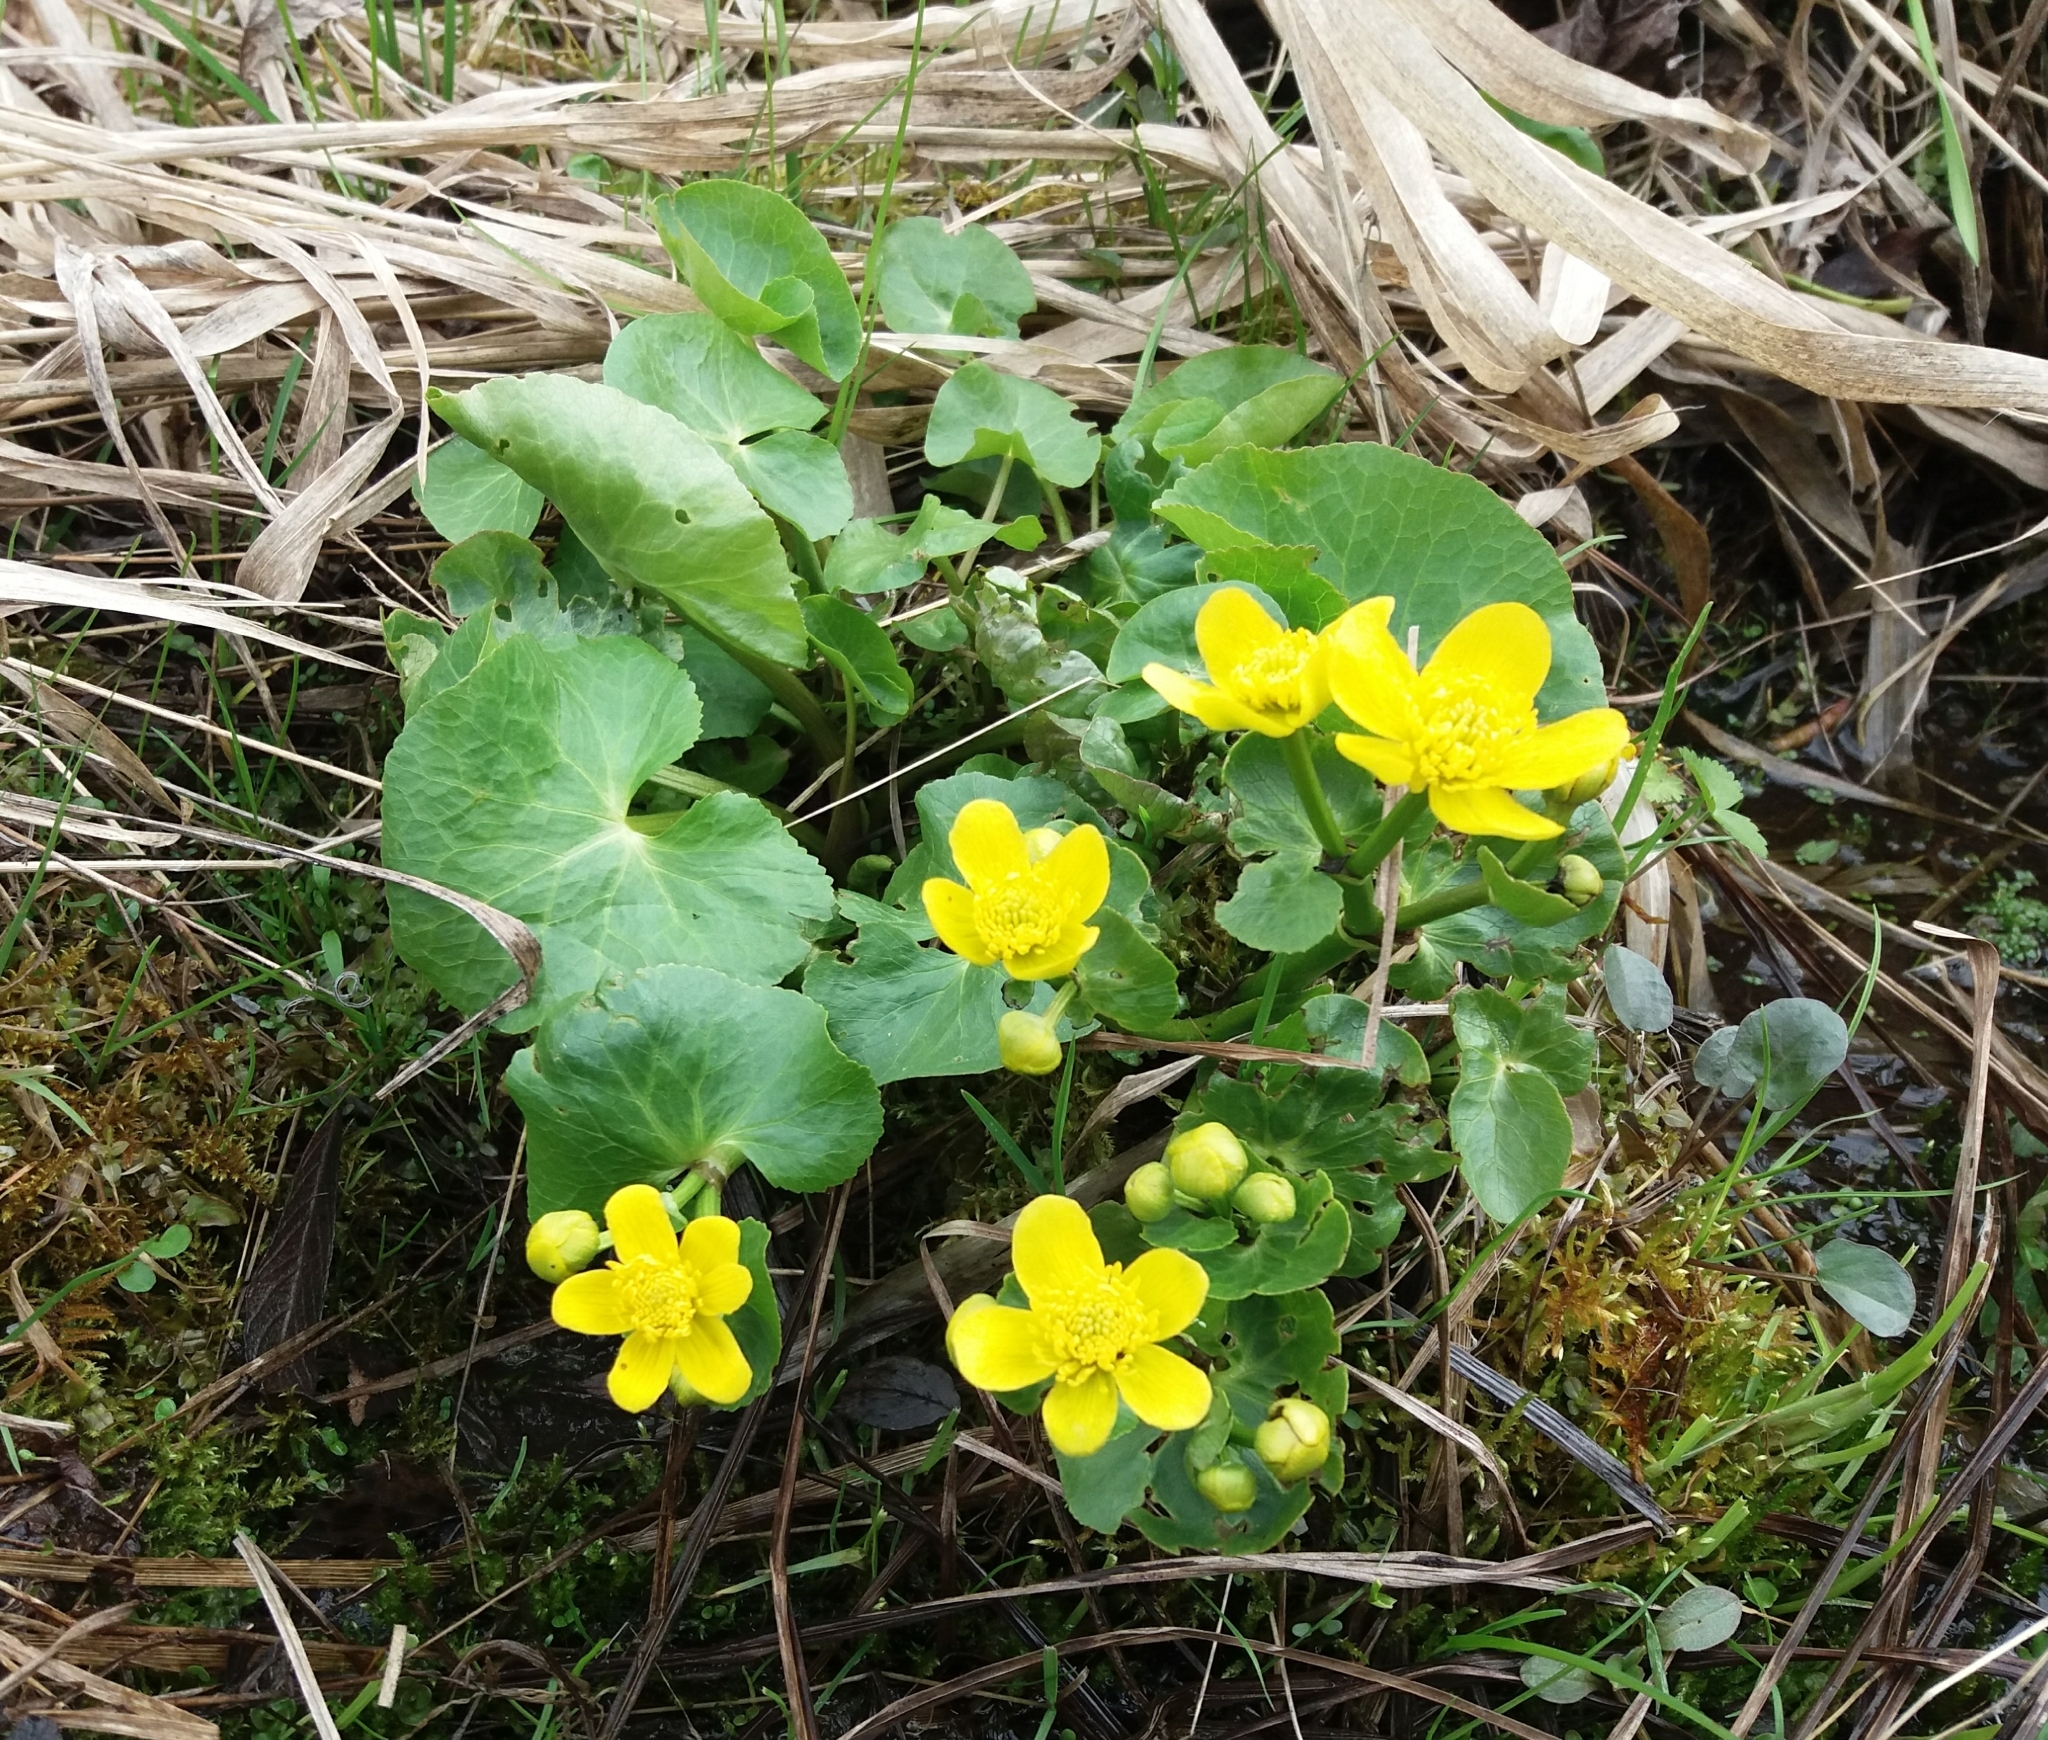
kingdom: Plantae
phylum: Tracheophyta
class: Magnoliopsida
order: Ranunculales
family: Ranunculaceae
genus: Caltha
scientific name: Caltha palustris
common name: Marsh marigold
